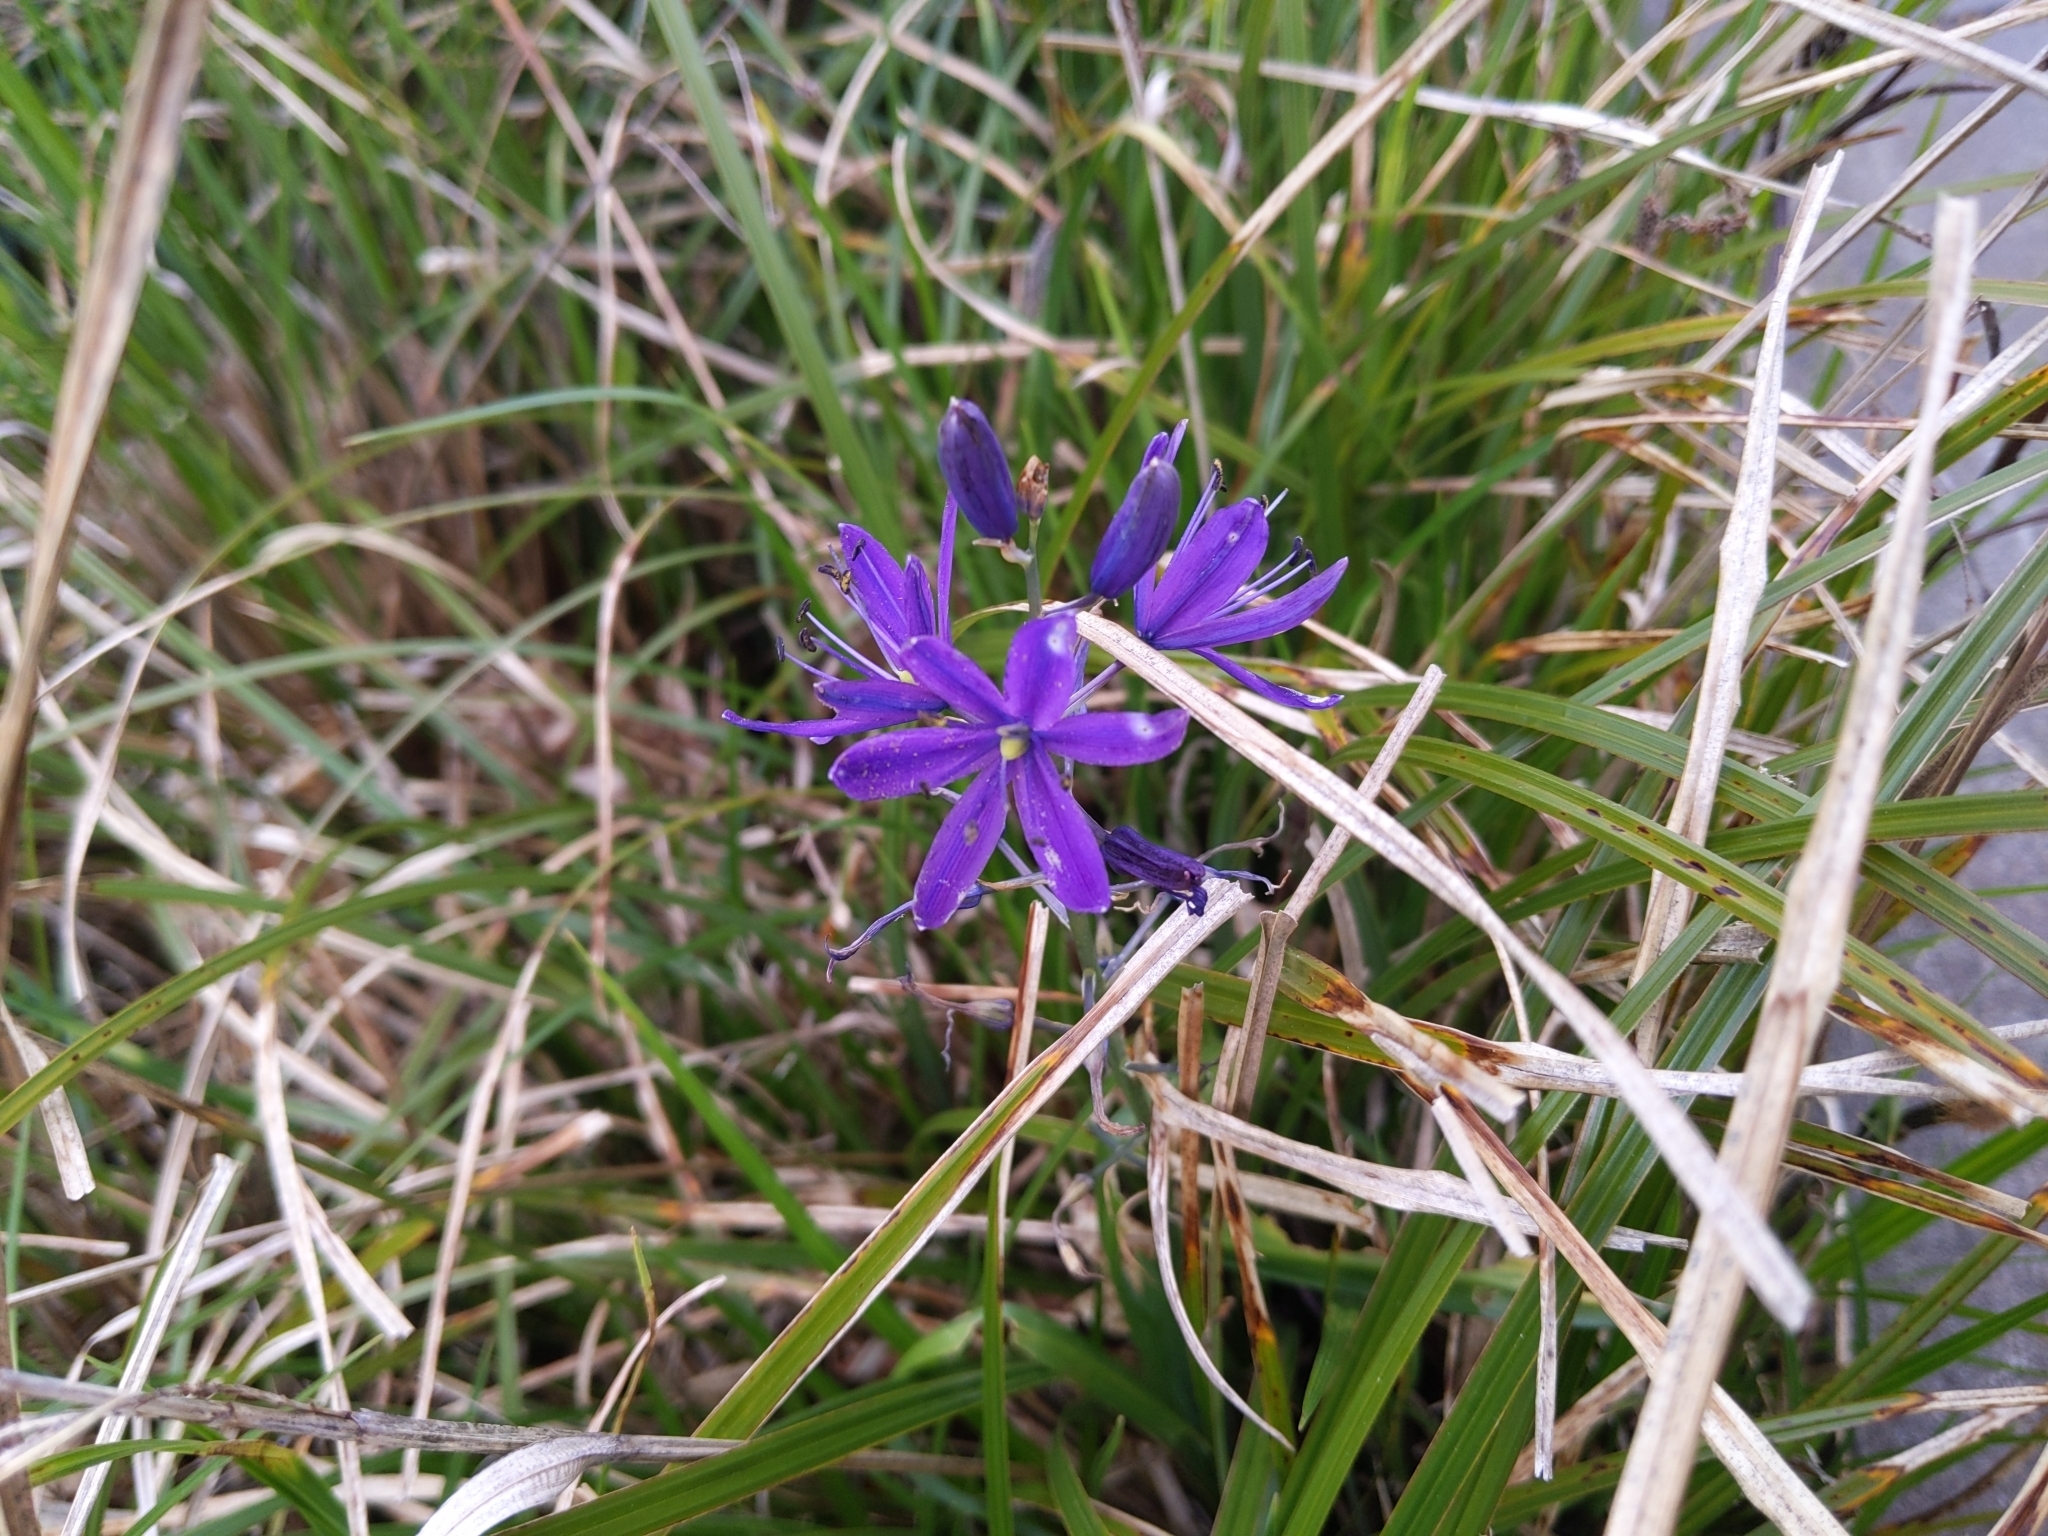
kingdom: Plantae
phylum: Tracheophyta
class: Liliopsida
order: Asparagales
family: Asparagaceae
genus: Camassia
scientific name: Camassia leichtlinii
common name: Leichtlin's camas
